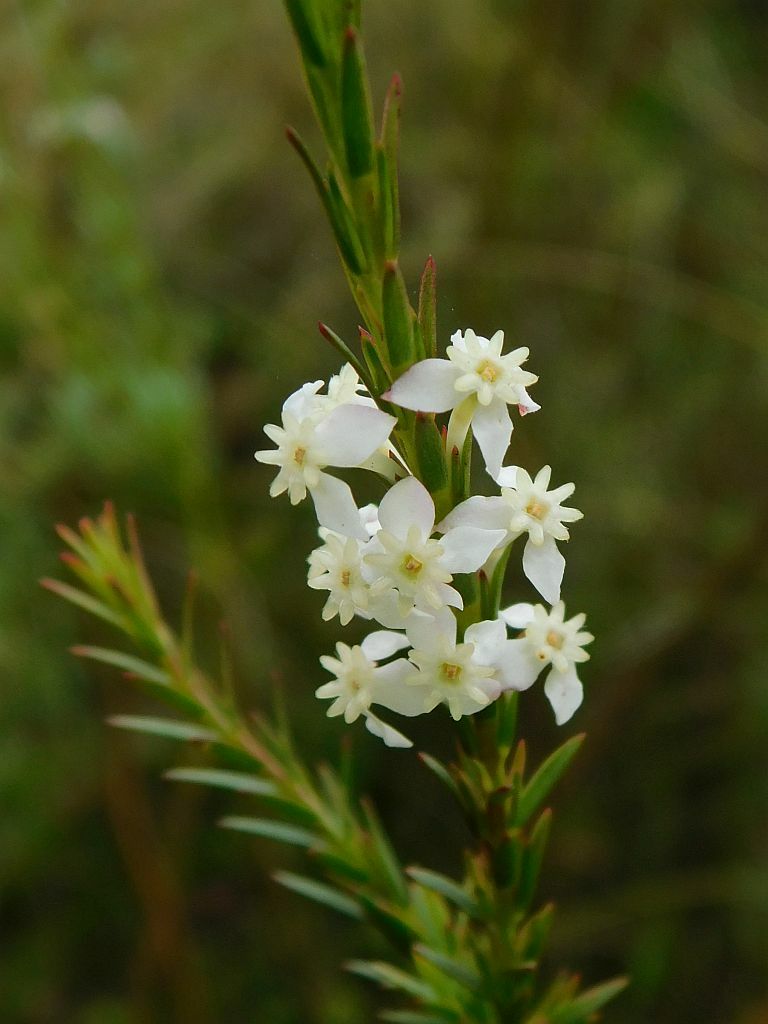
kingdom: Plantae
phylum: Tracheophyta
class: Magnoliopsida
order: Malvales
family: Thymelaeaceae
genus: Struthiola
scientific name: Struthiola dodecandra
